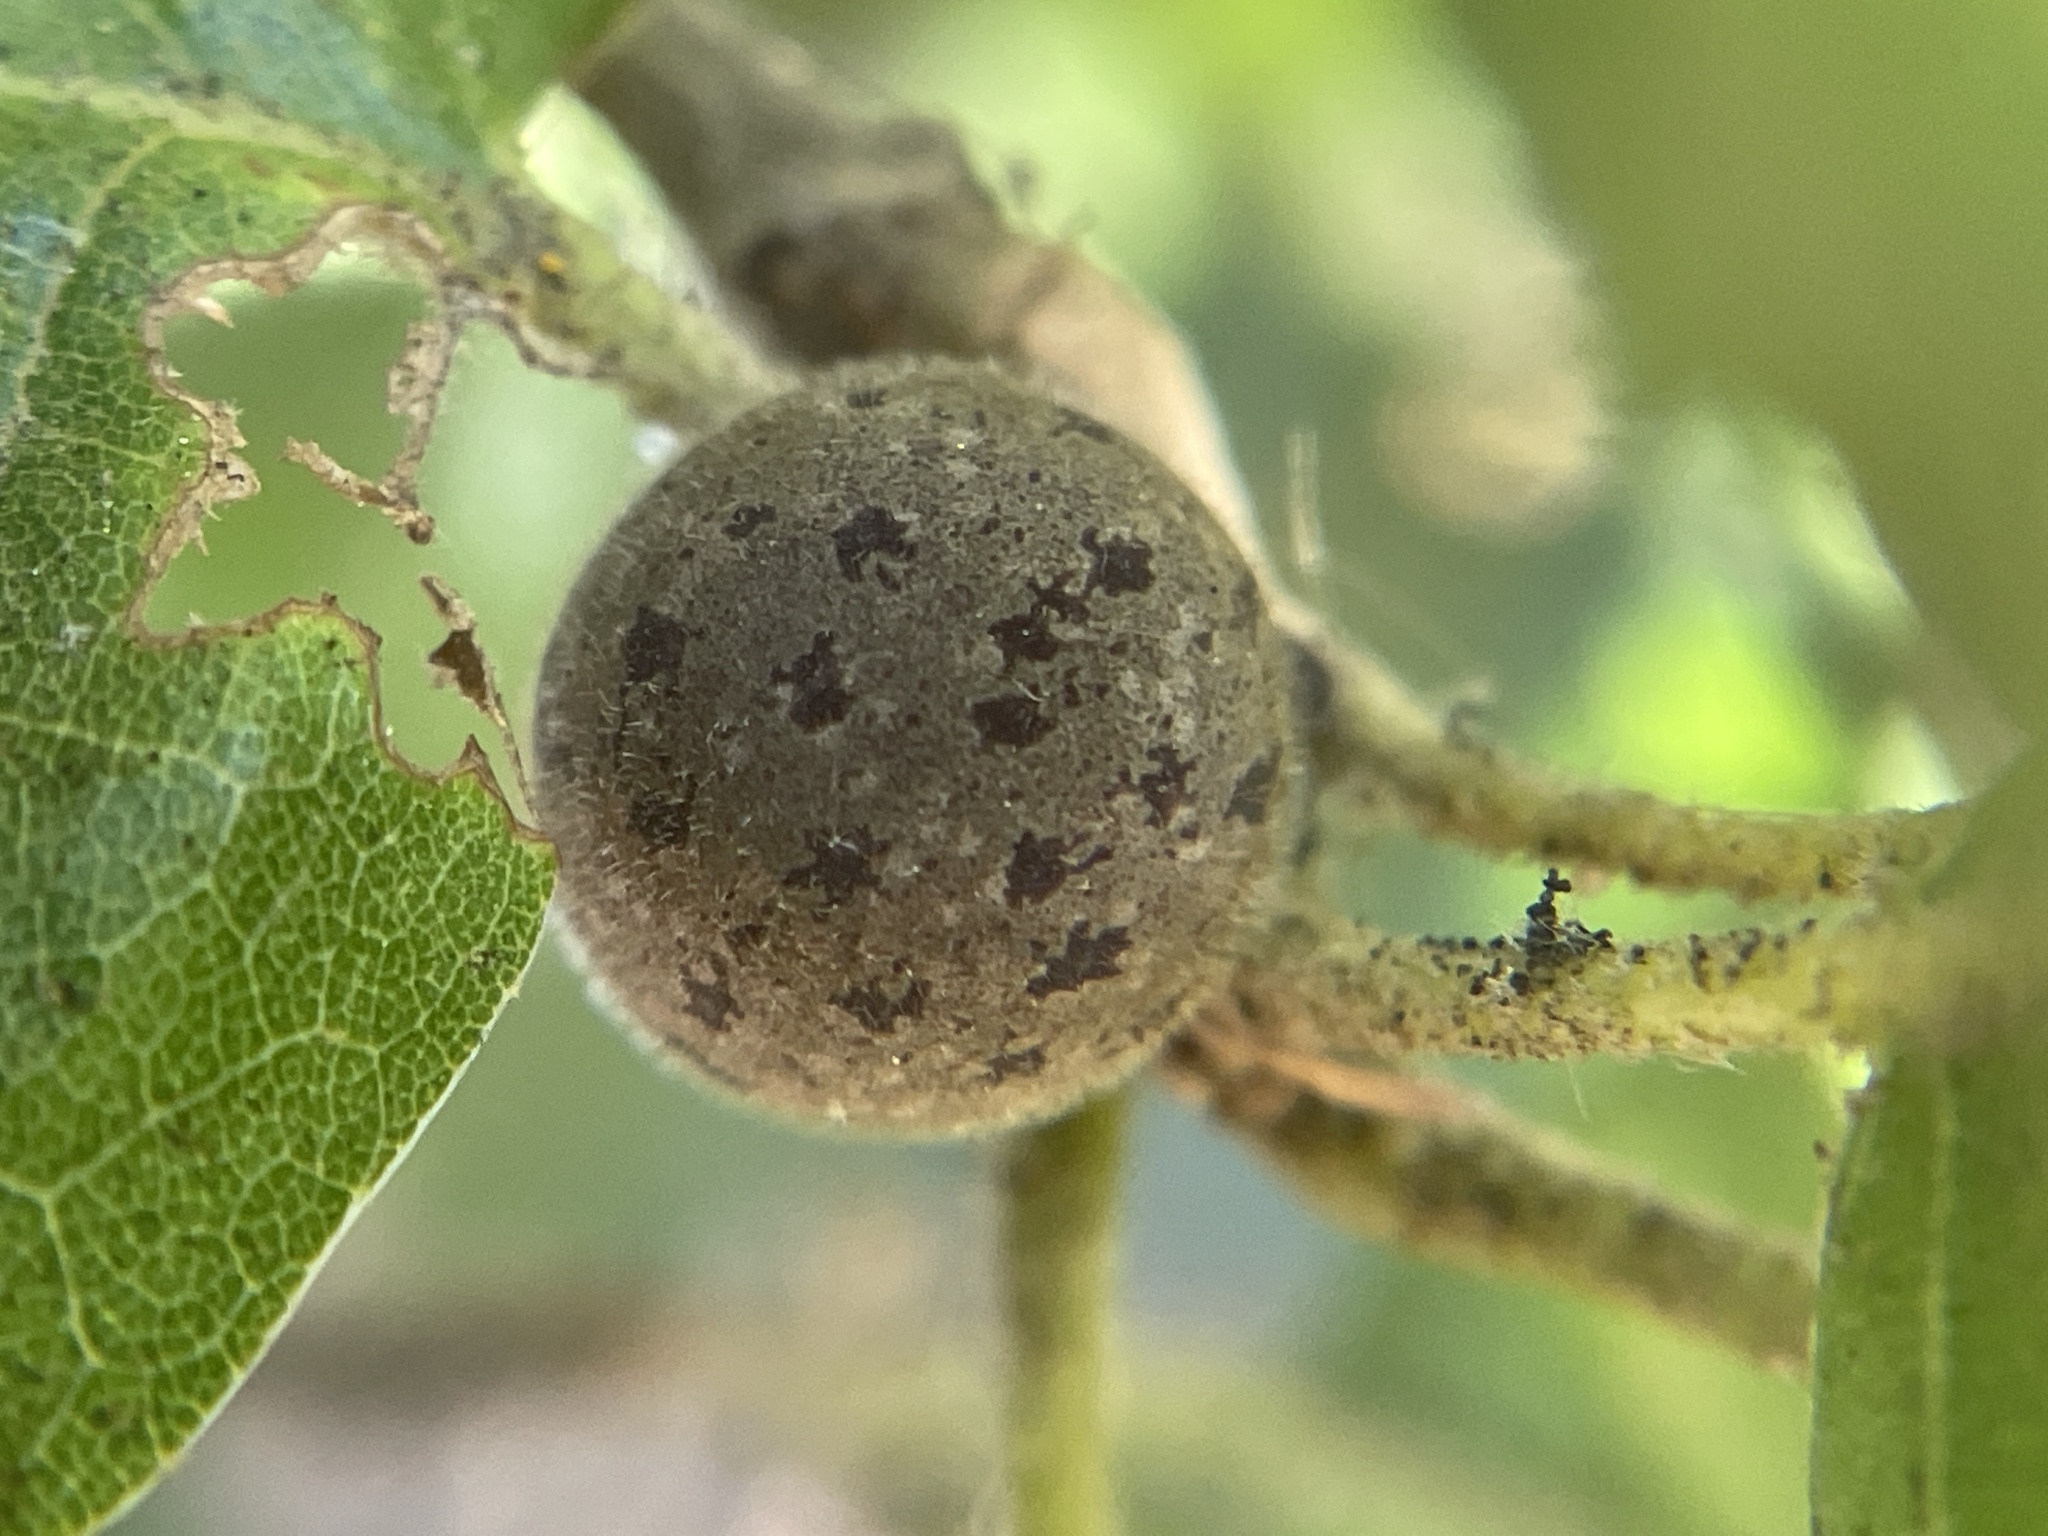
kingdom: Animalia
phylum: Arthropoda
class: Insecta
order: Hymenoptera
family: Cynipidae
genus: Callirhytis
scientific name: Callirhytis
